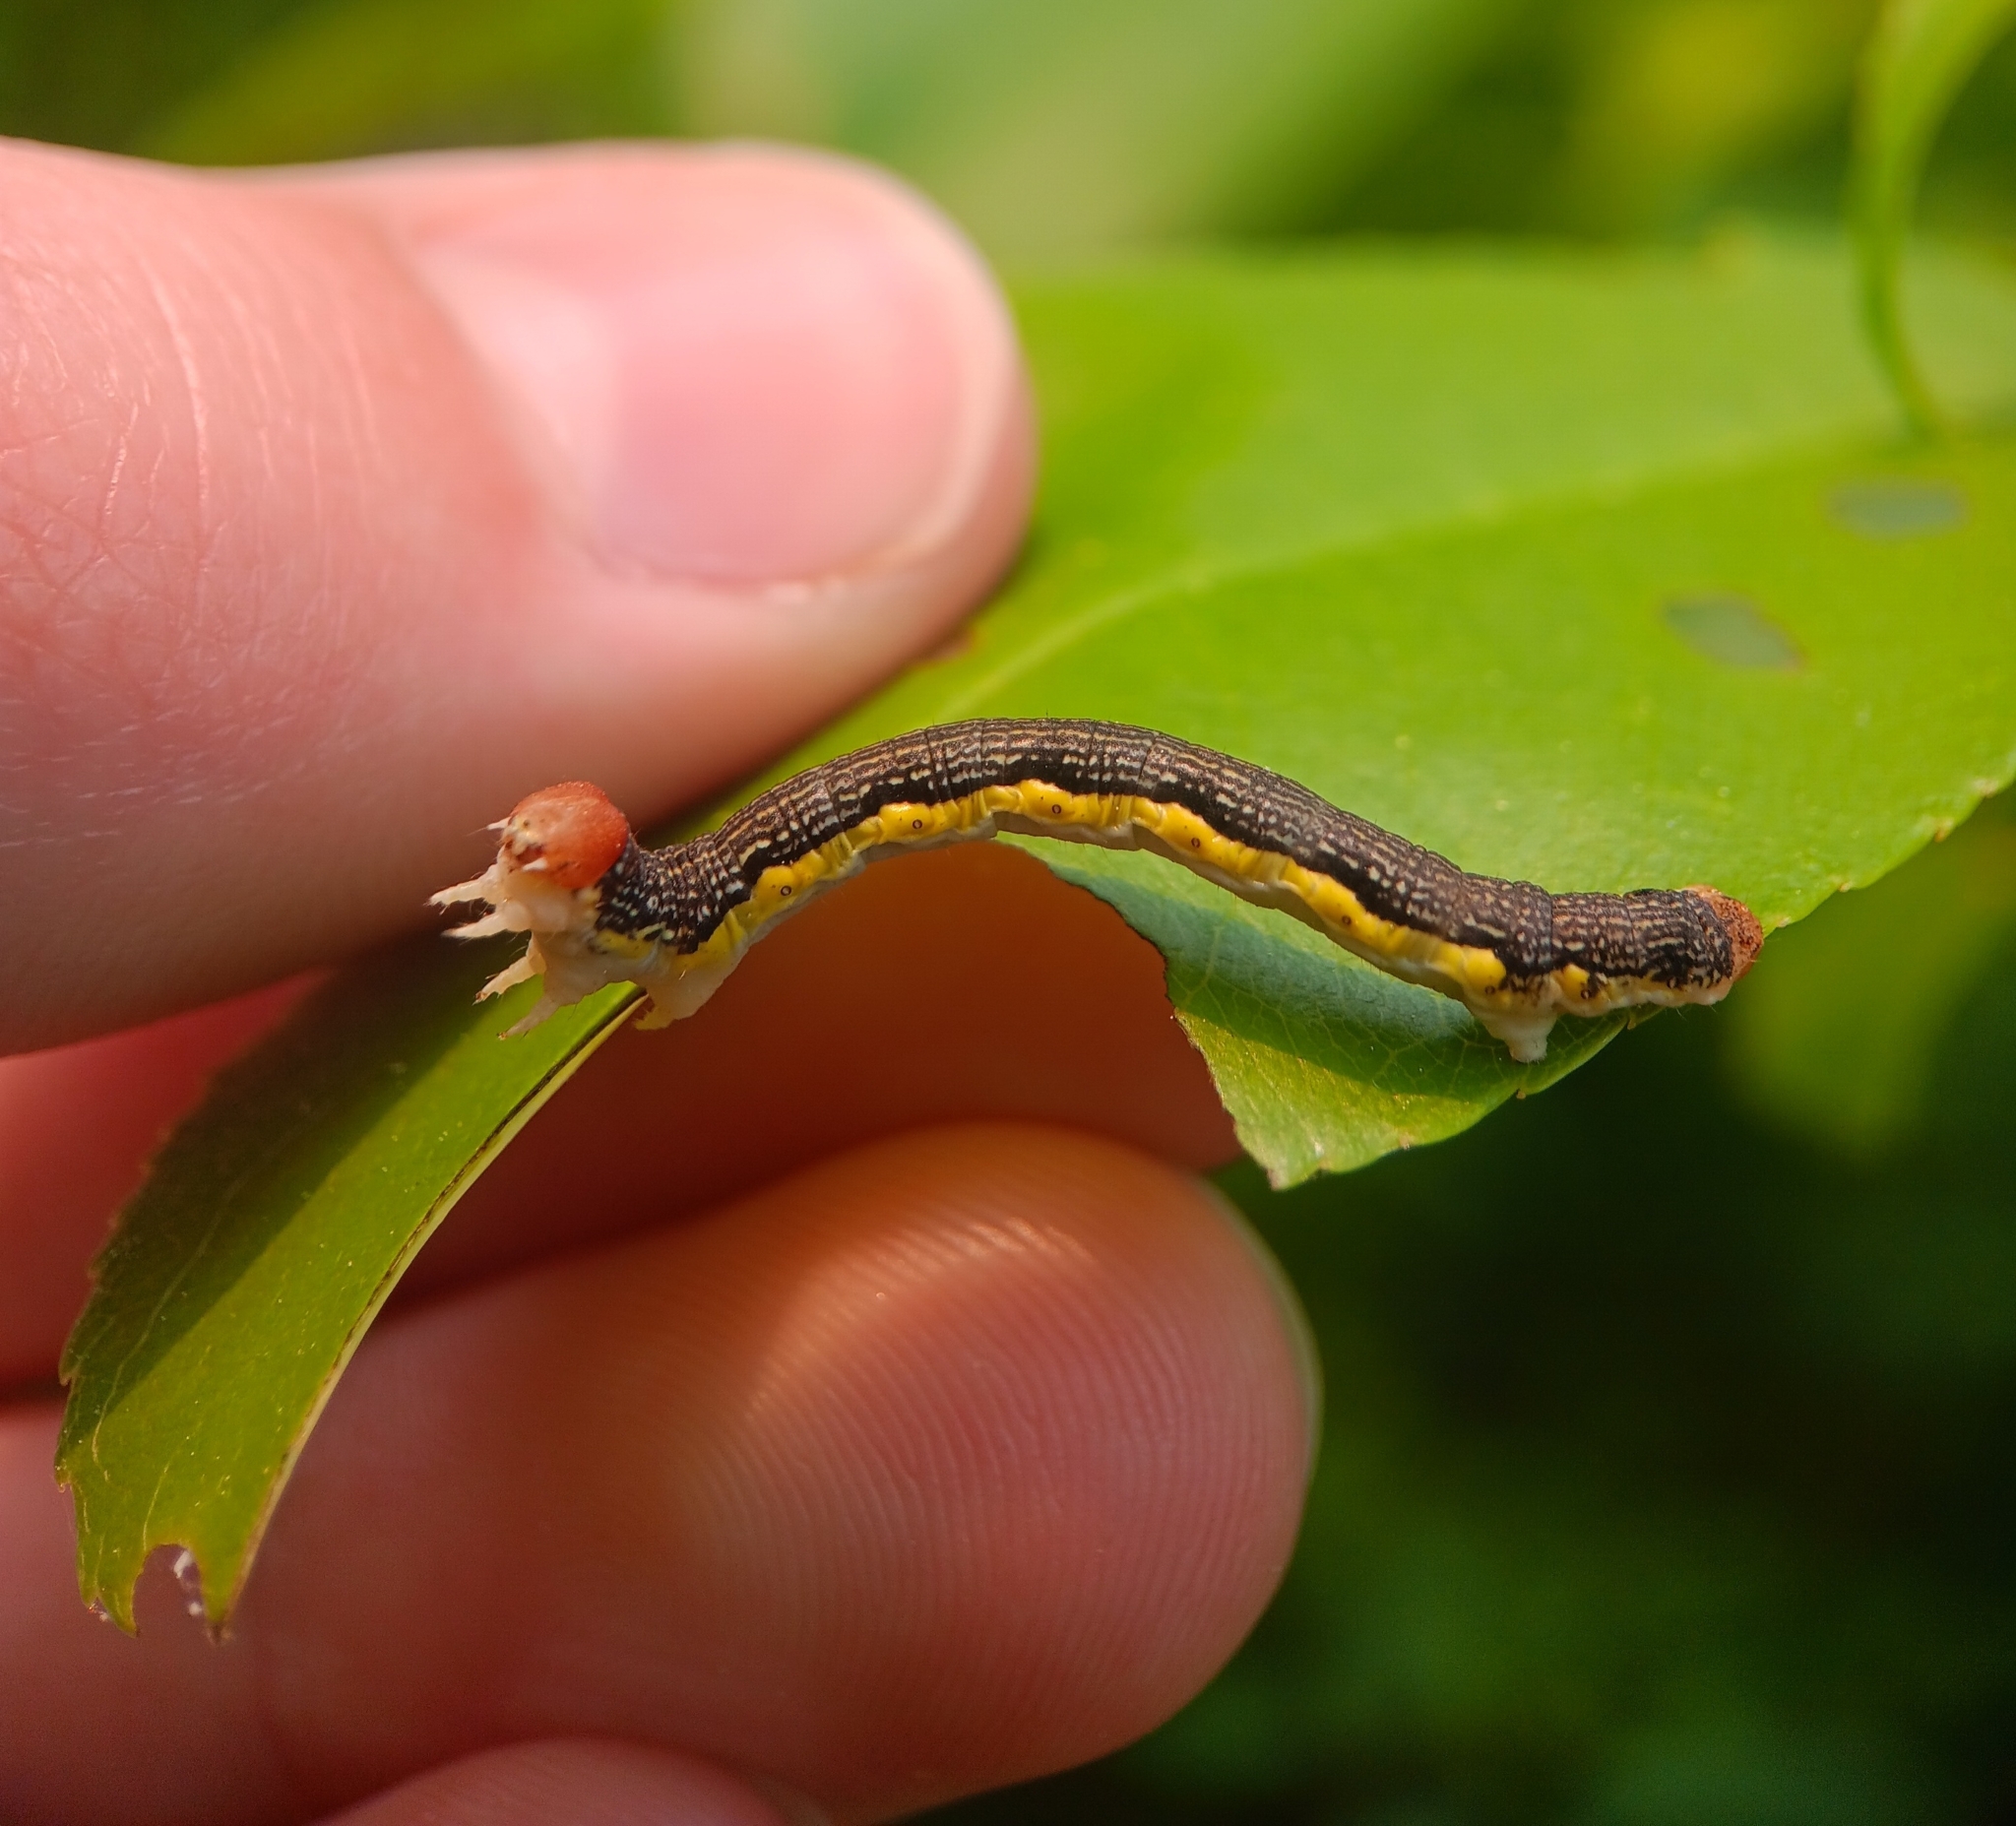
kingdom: Animalia
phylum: Arthropoda
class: Insecta
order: Lepidoptera
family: Geometridae
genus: Erannis
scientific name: Erannis tiliaria
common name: Linden looper
